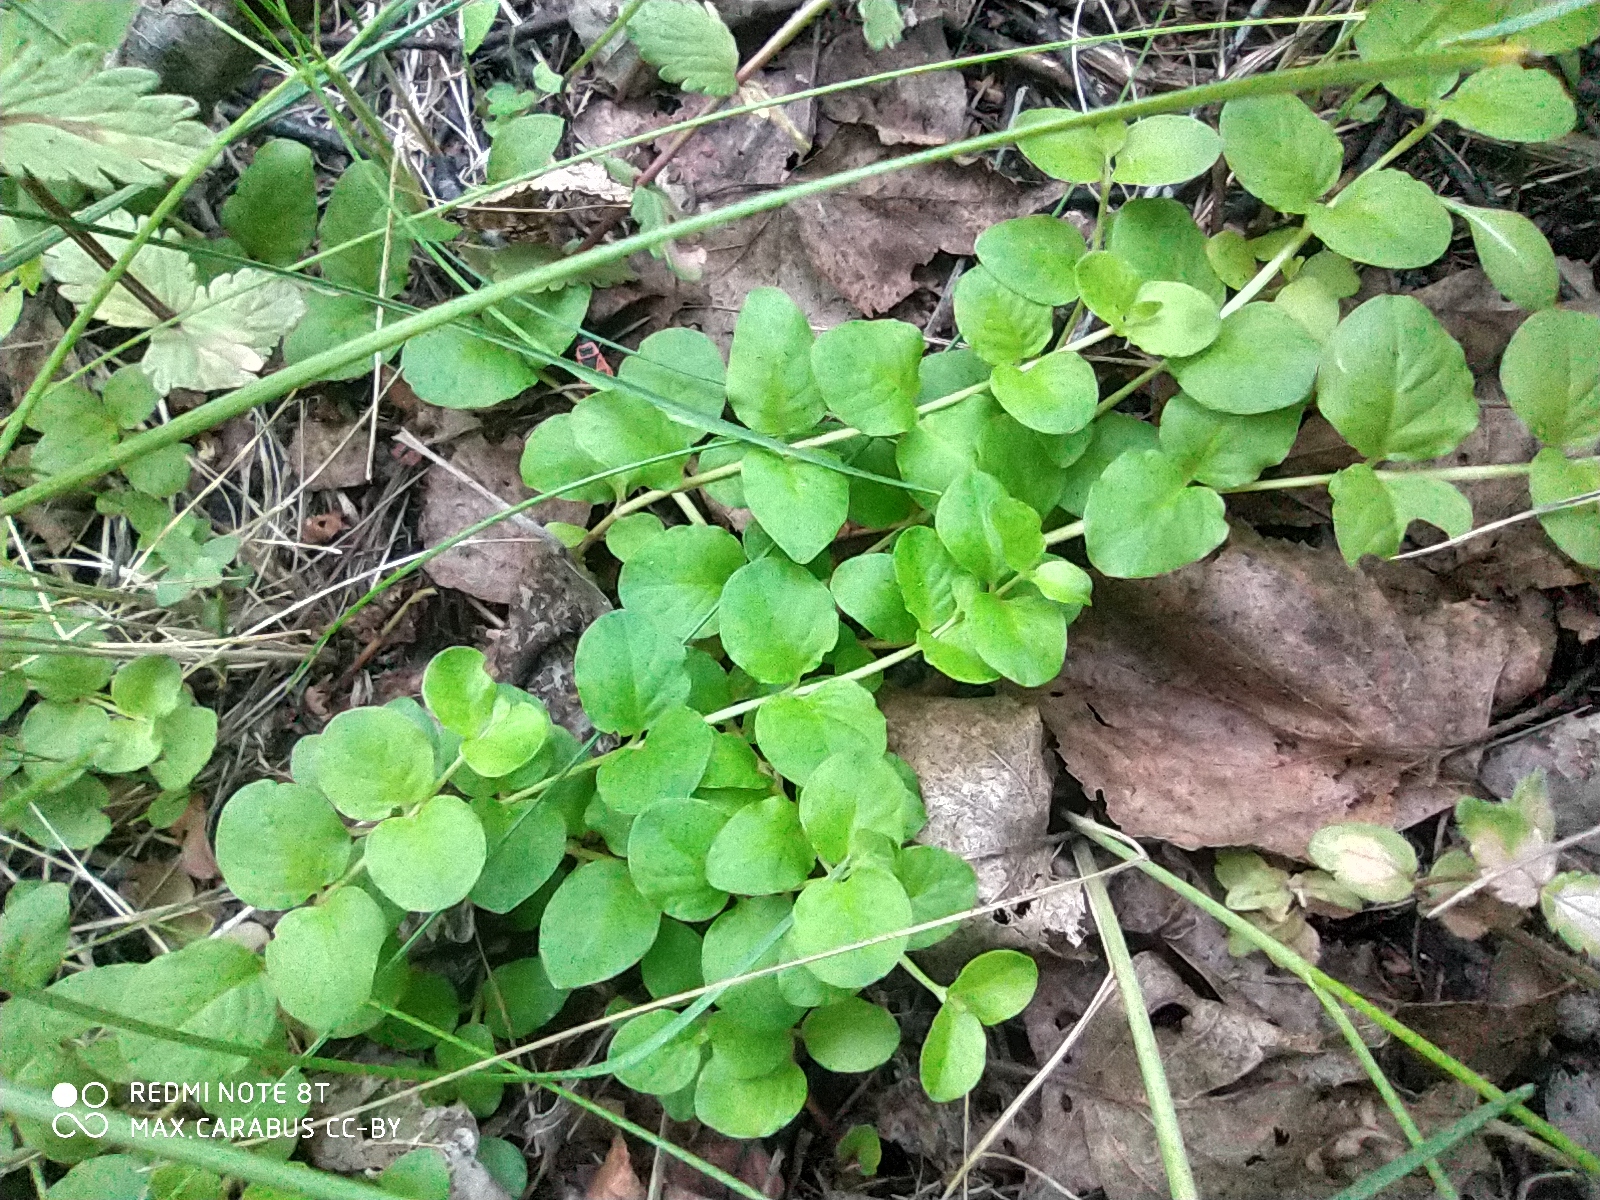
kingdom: Plantae
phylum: Tracheophyta
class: Magnoliopsida
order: Ericales
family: Primulaceae
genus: Lysimachia
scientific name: Lysimachia nummularia
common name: Moneywort
